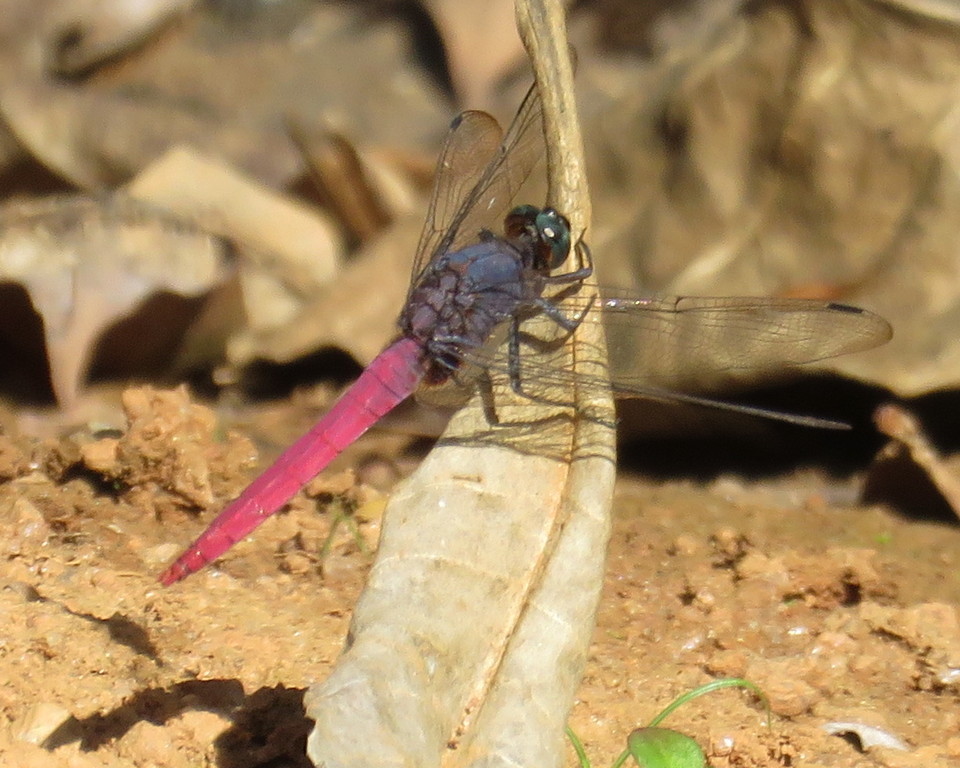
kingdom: Animalia
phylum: Arthropoda
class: Insecta
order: Odonata
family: Libellulidae
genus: Orthetrum
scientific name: Orthetrum pruinosum
